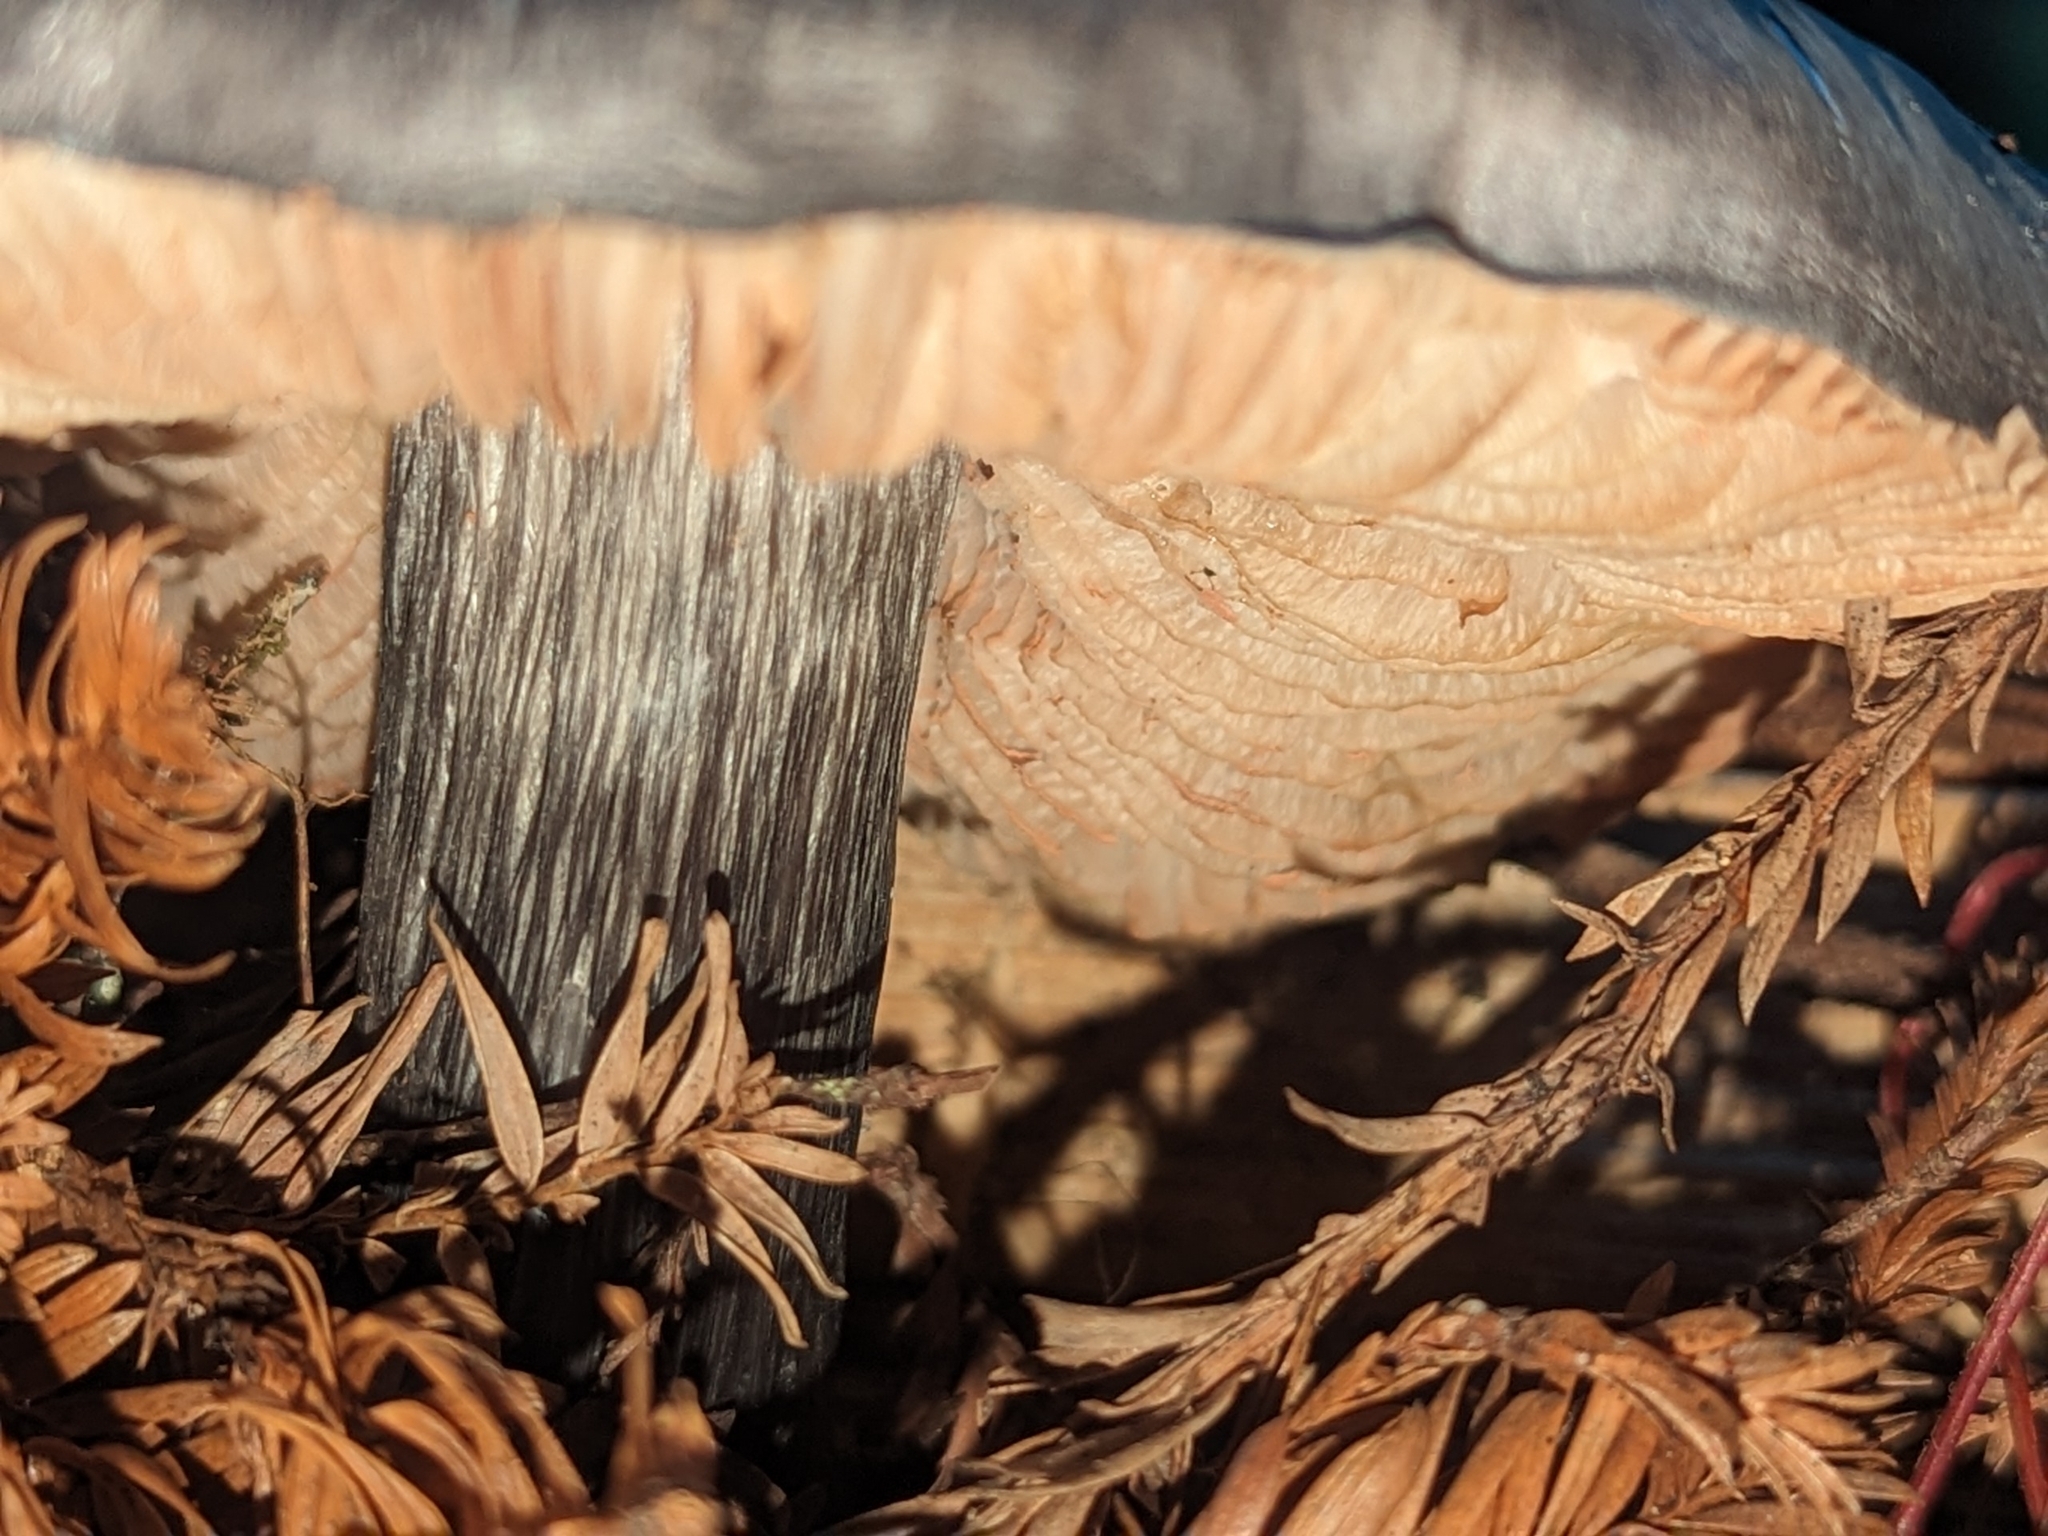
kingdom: Fungi
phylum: Basidiomycota
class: Agaricomycetes
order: Agaricales
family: Entolomataceae
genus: Entoloma
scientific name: Entoloma medianox
